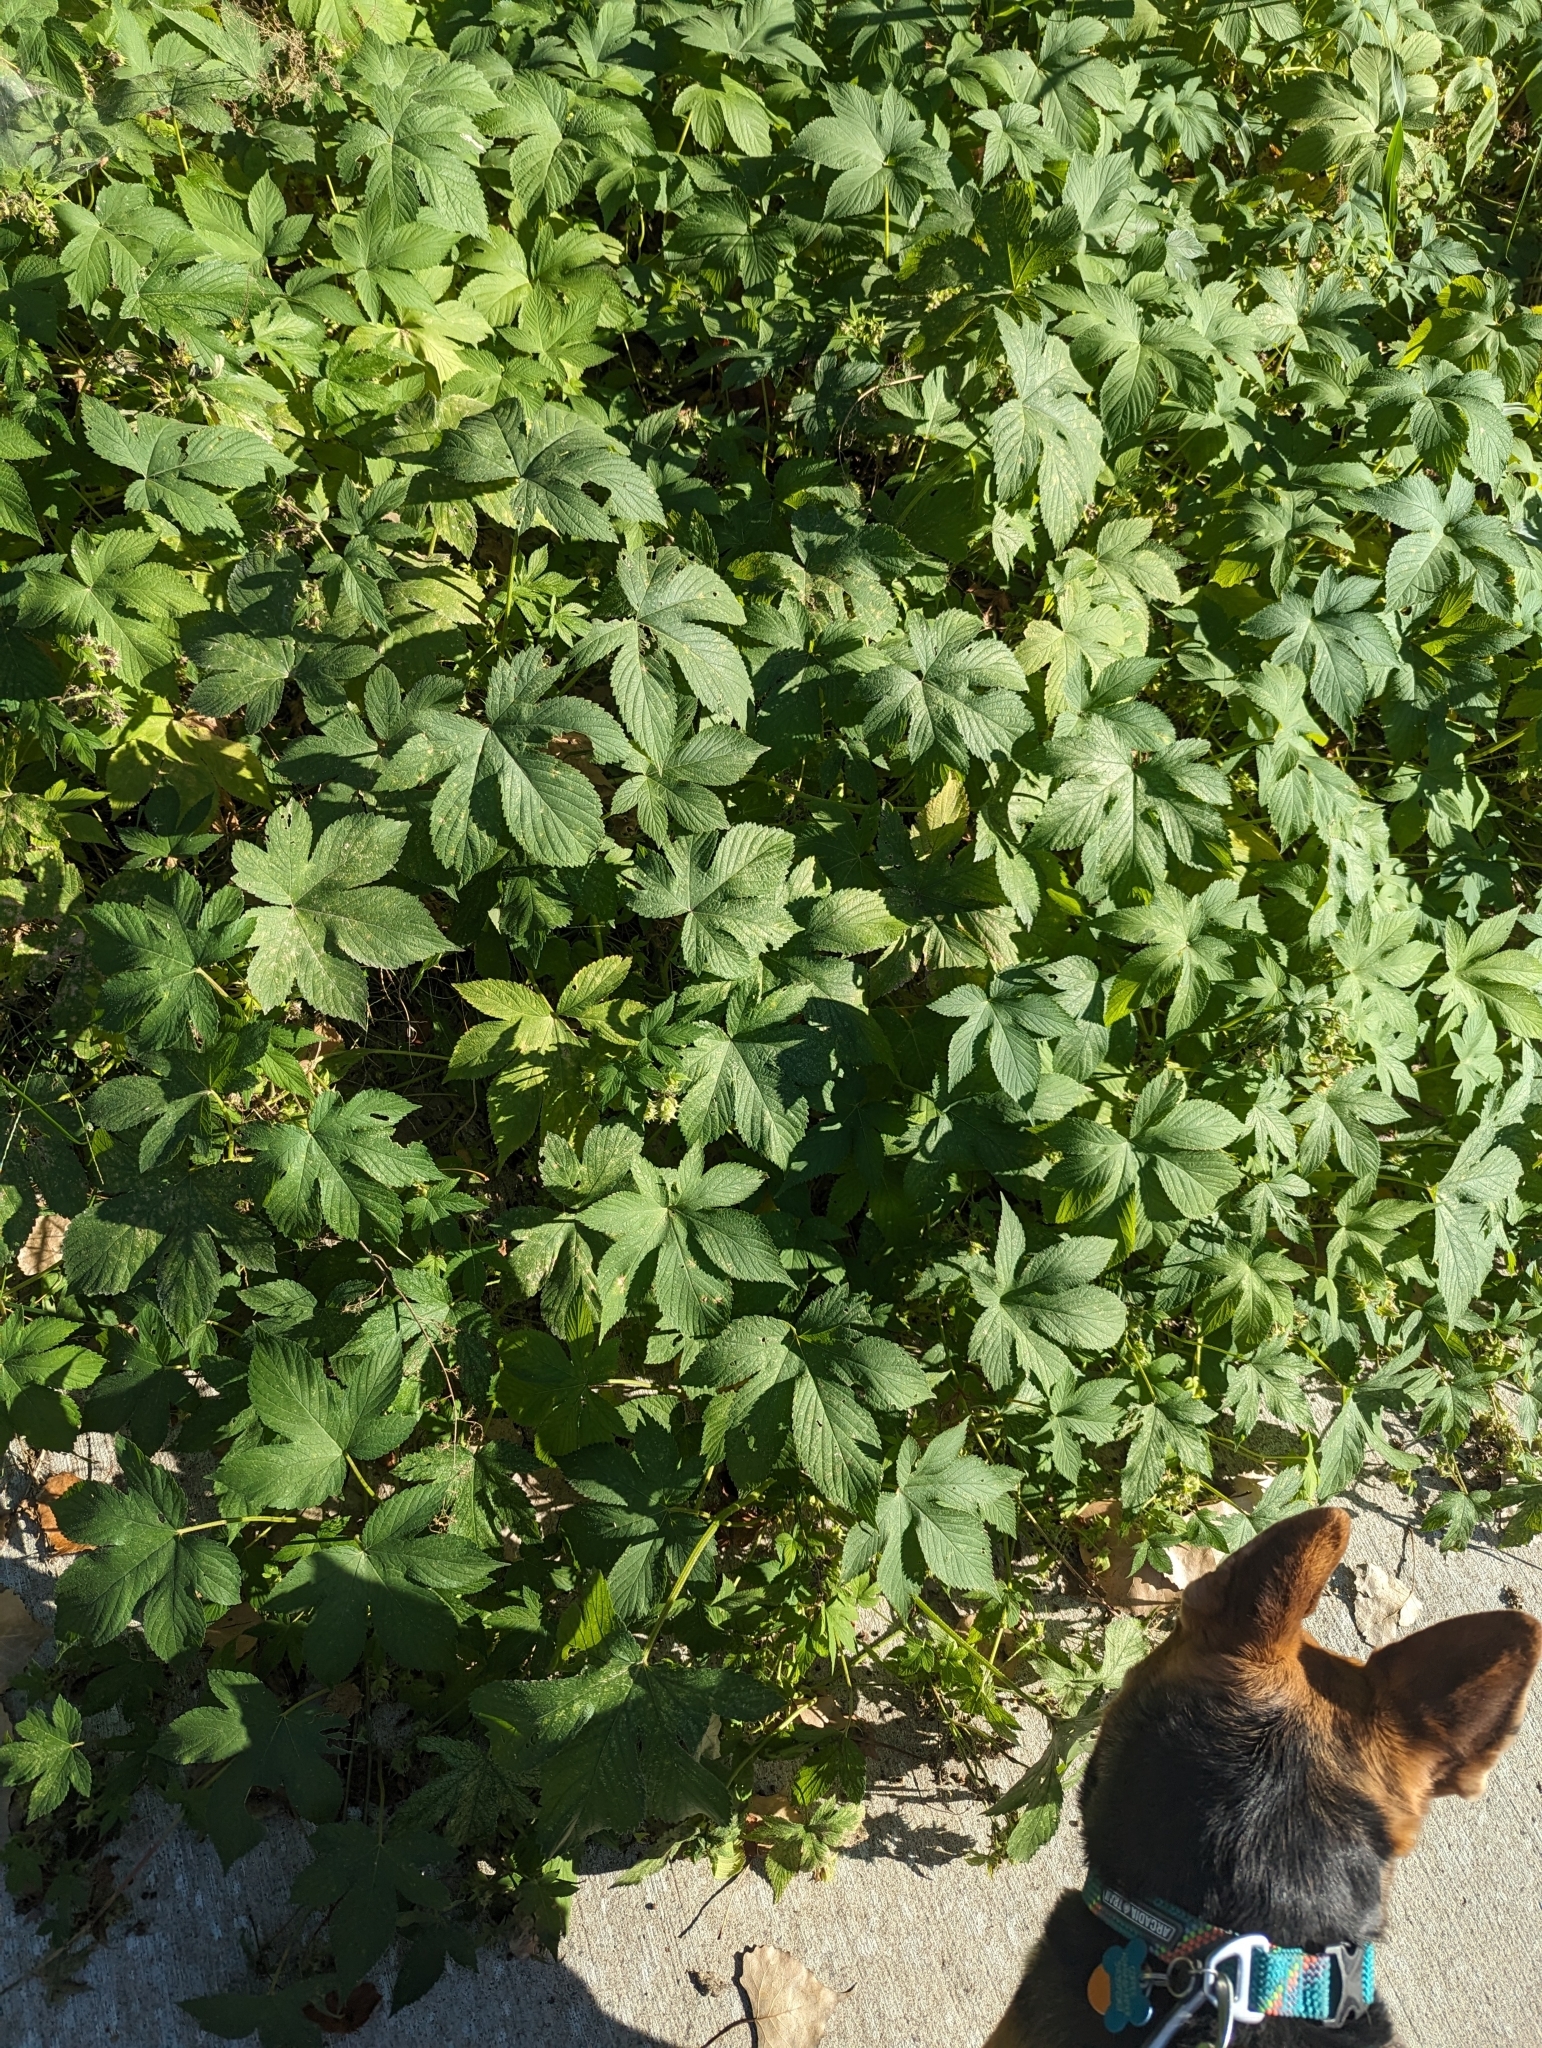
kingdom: Plantae
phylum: Tracheophyta
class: Magnoliopsida
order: Rosales
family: Cannabaceae
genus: Humulus
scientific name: Humulus scandens
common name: Japanese hop
